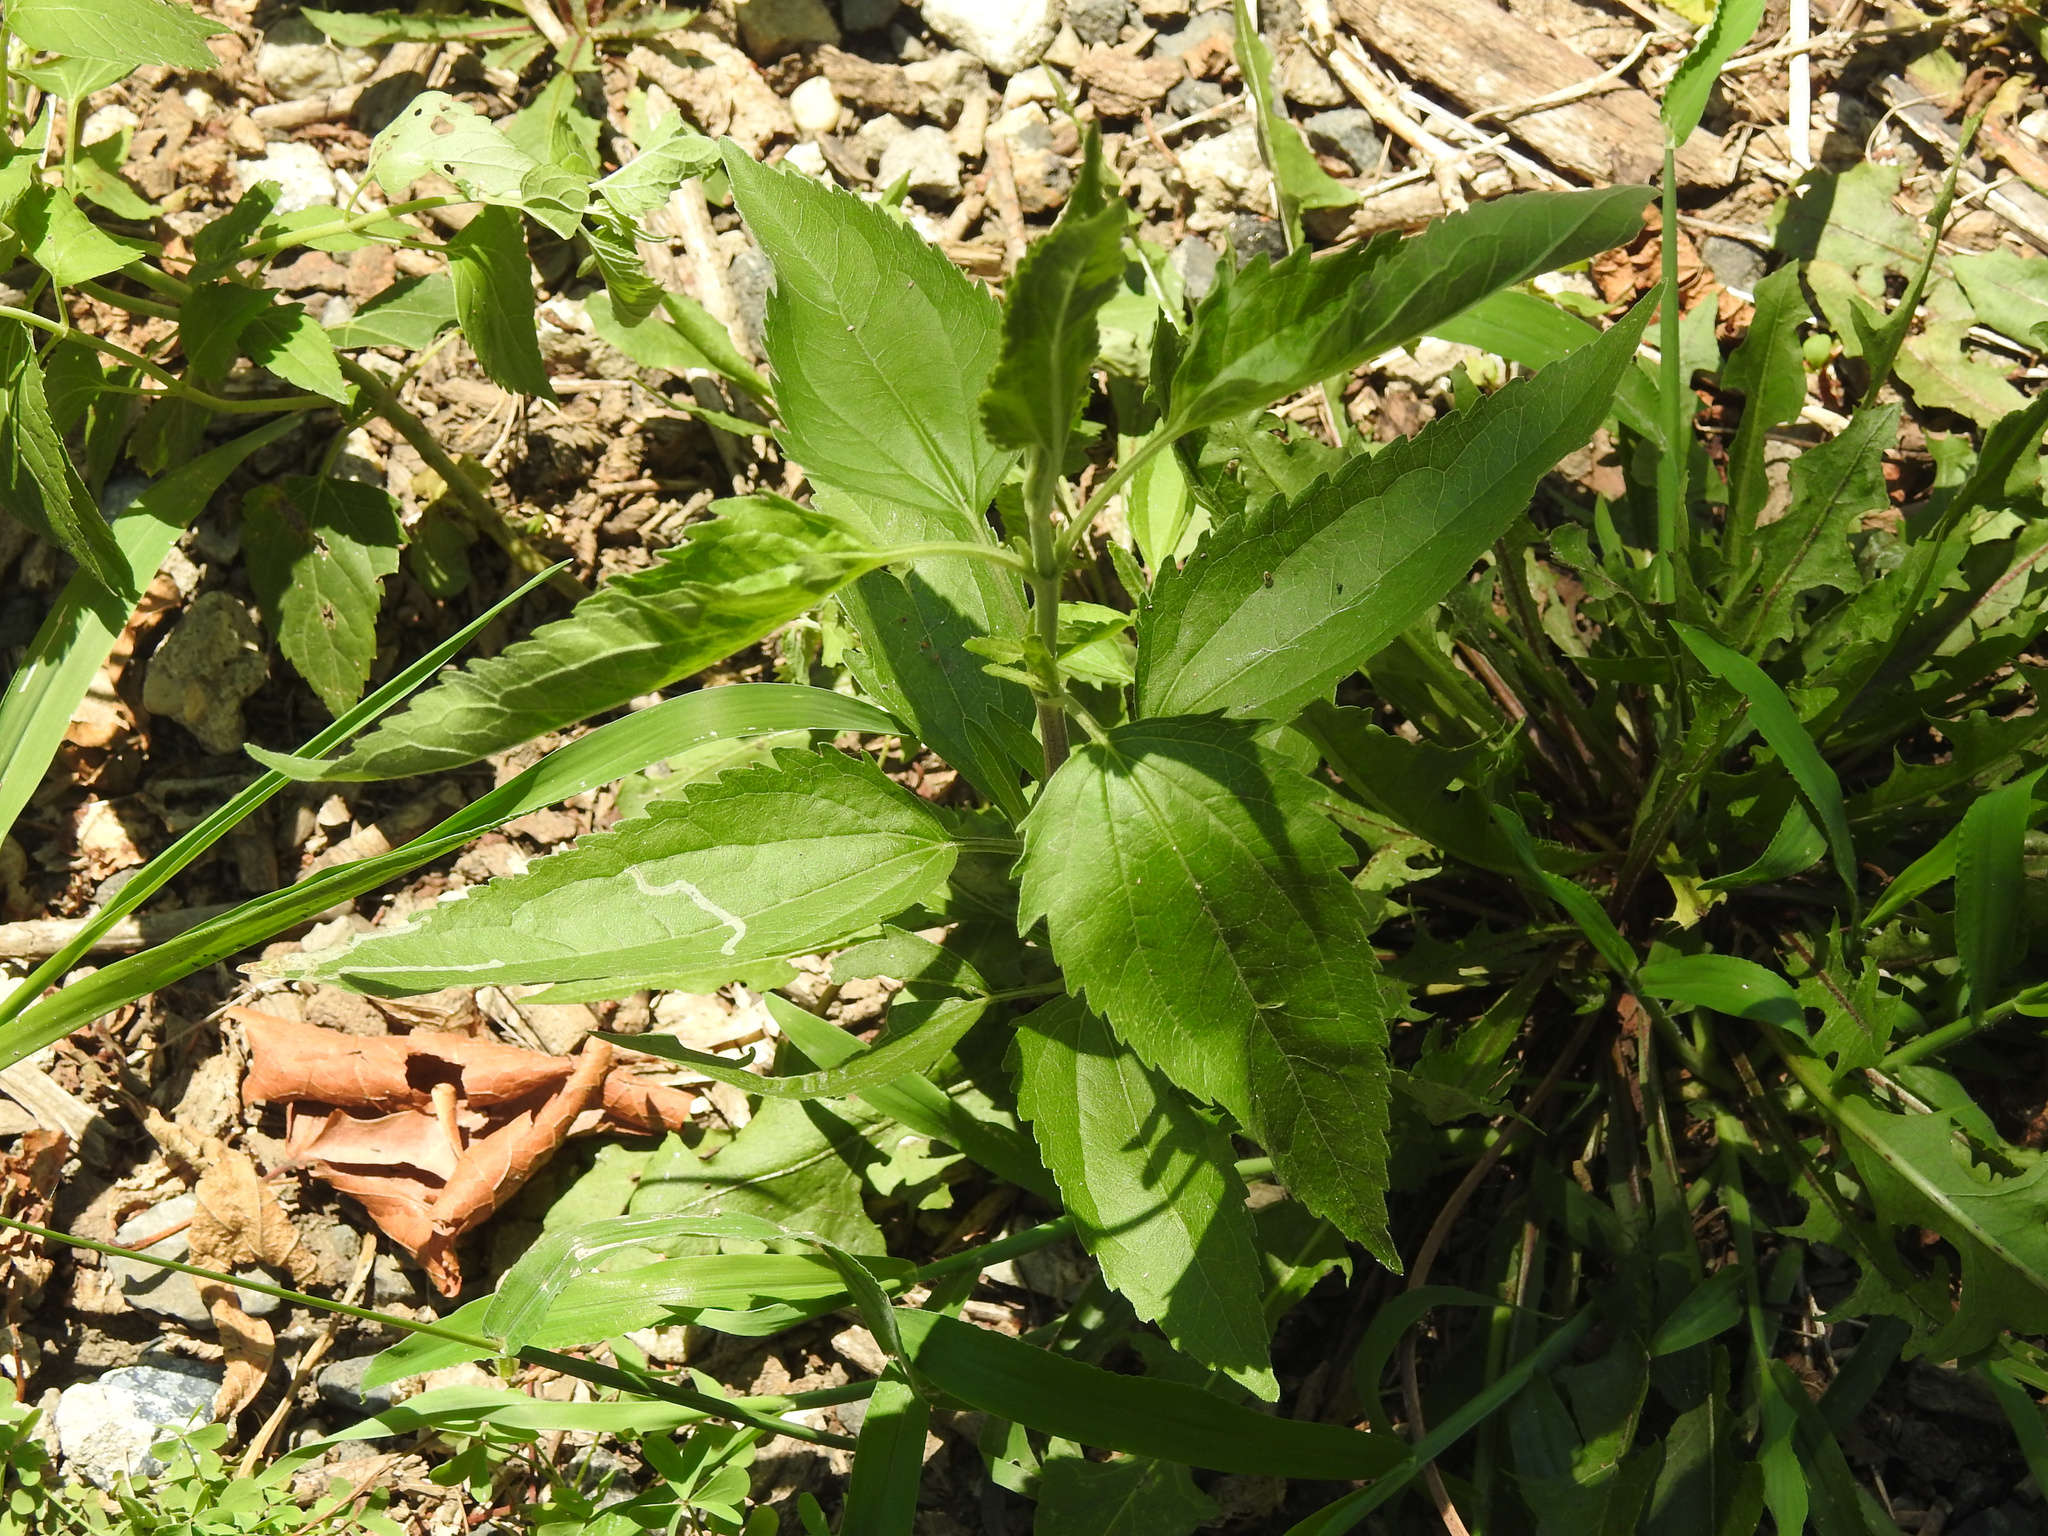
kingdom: Plantae
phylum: Tracheophyta
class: Magnoliopsida
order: Asterales
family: Asteraceae
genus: Eupatorium
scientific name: Eupatorium serotinum
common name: Late boneset
